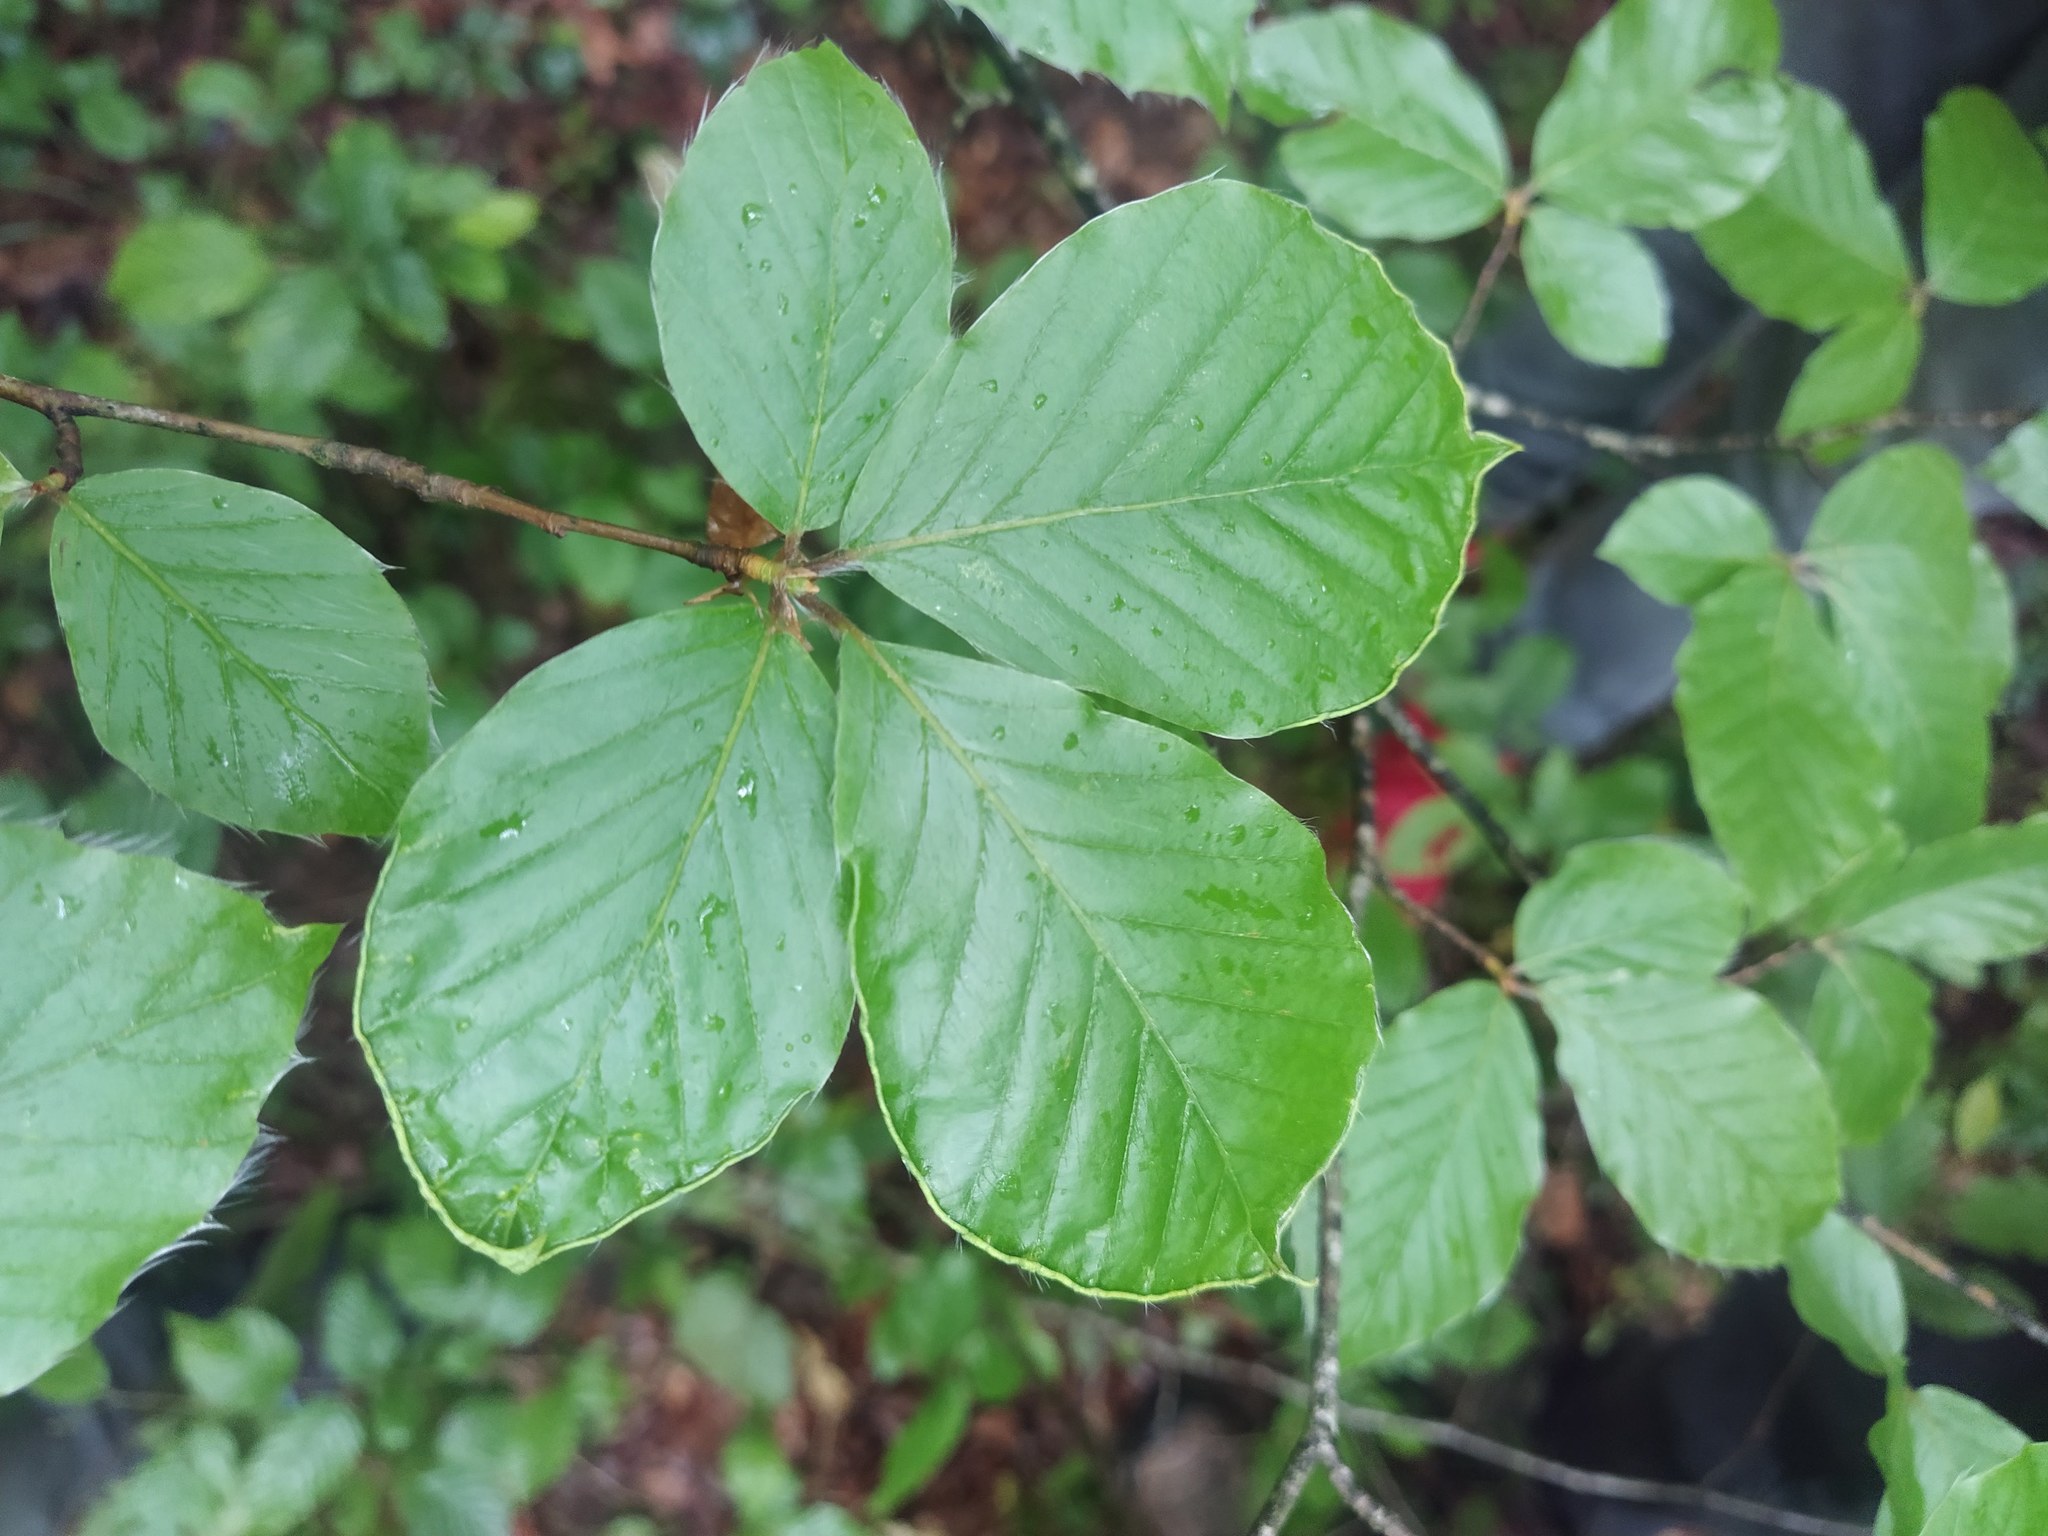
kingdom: Plantae
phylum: Tracheophyta
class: Magnoliopsida
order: Fagales
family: Fagaceae
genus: Fagus
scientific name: Fagus sylvatica
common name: Beech
